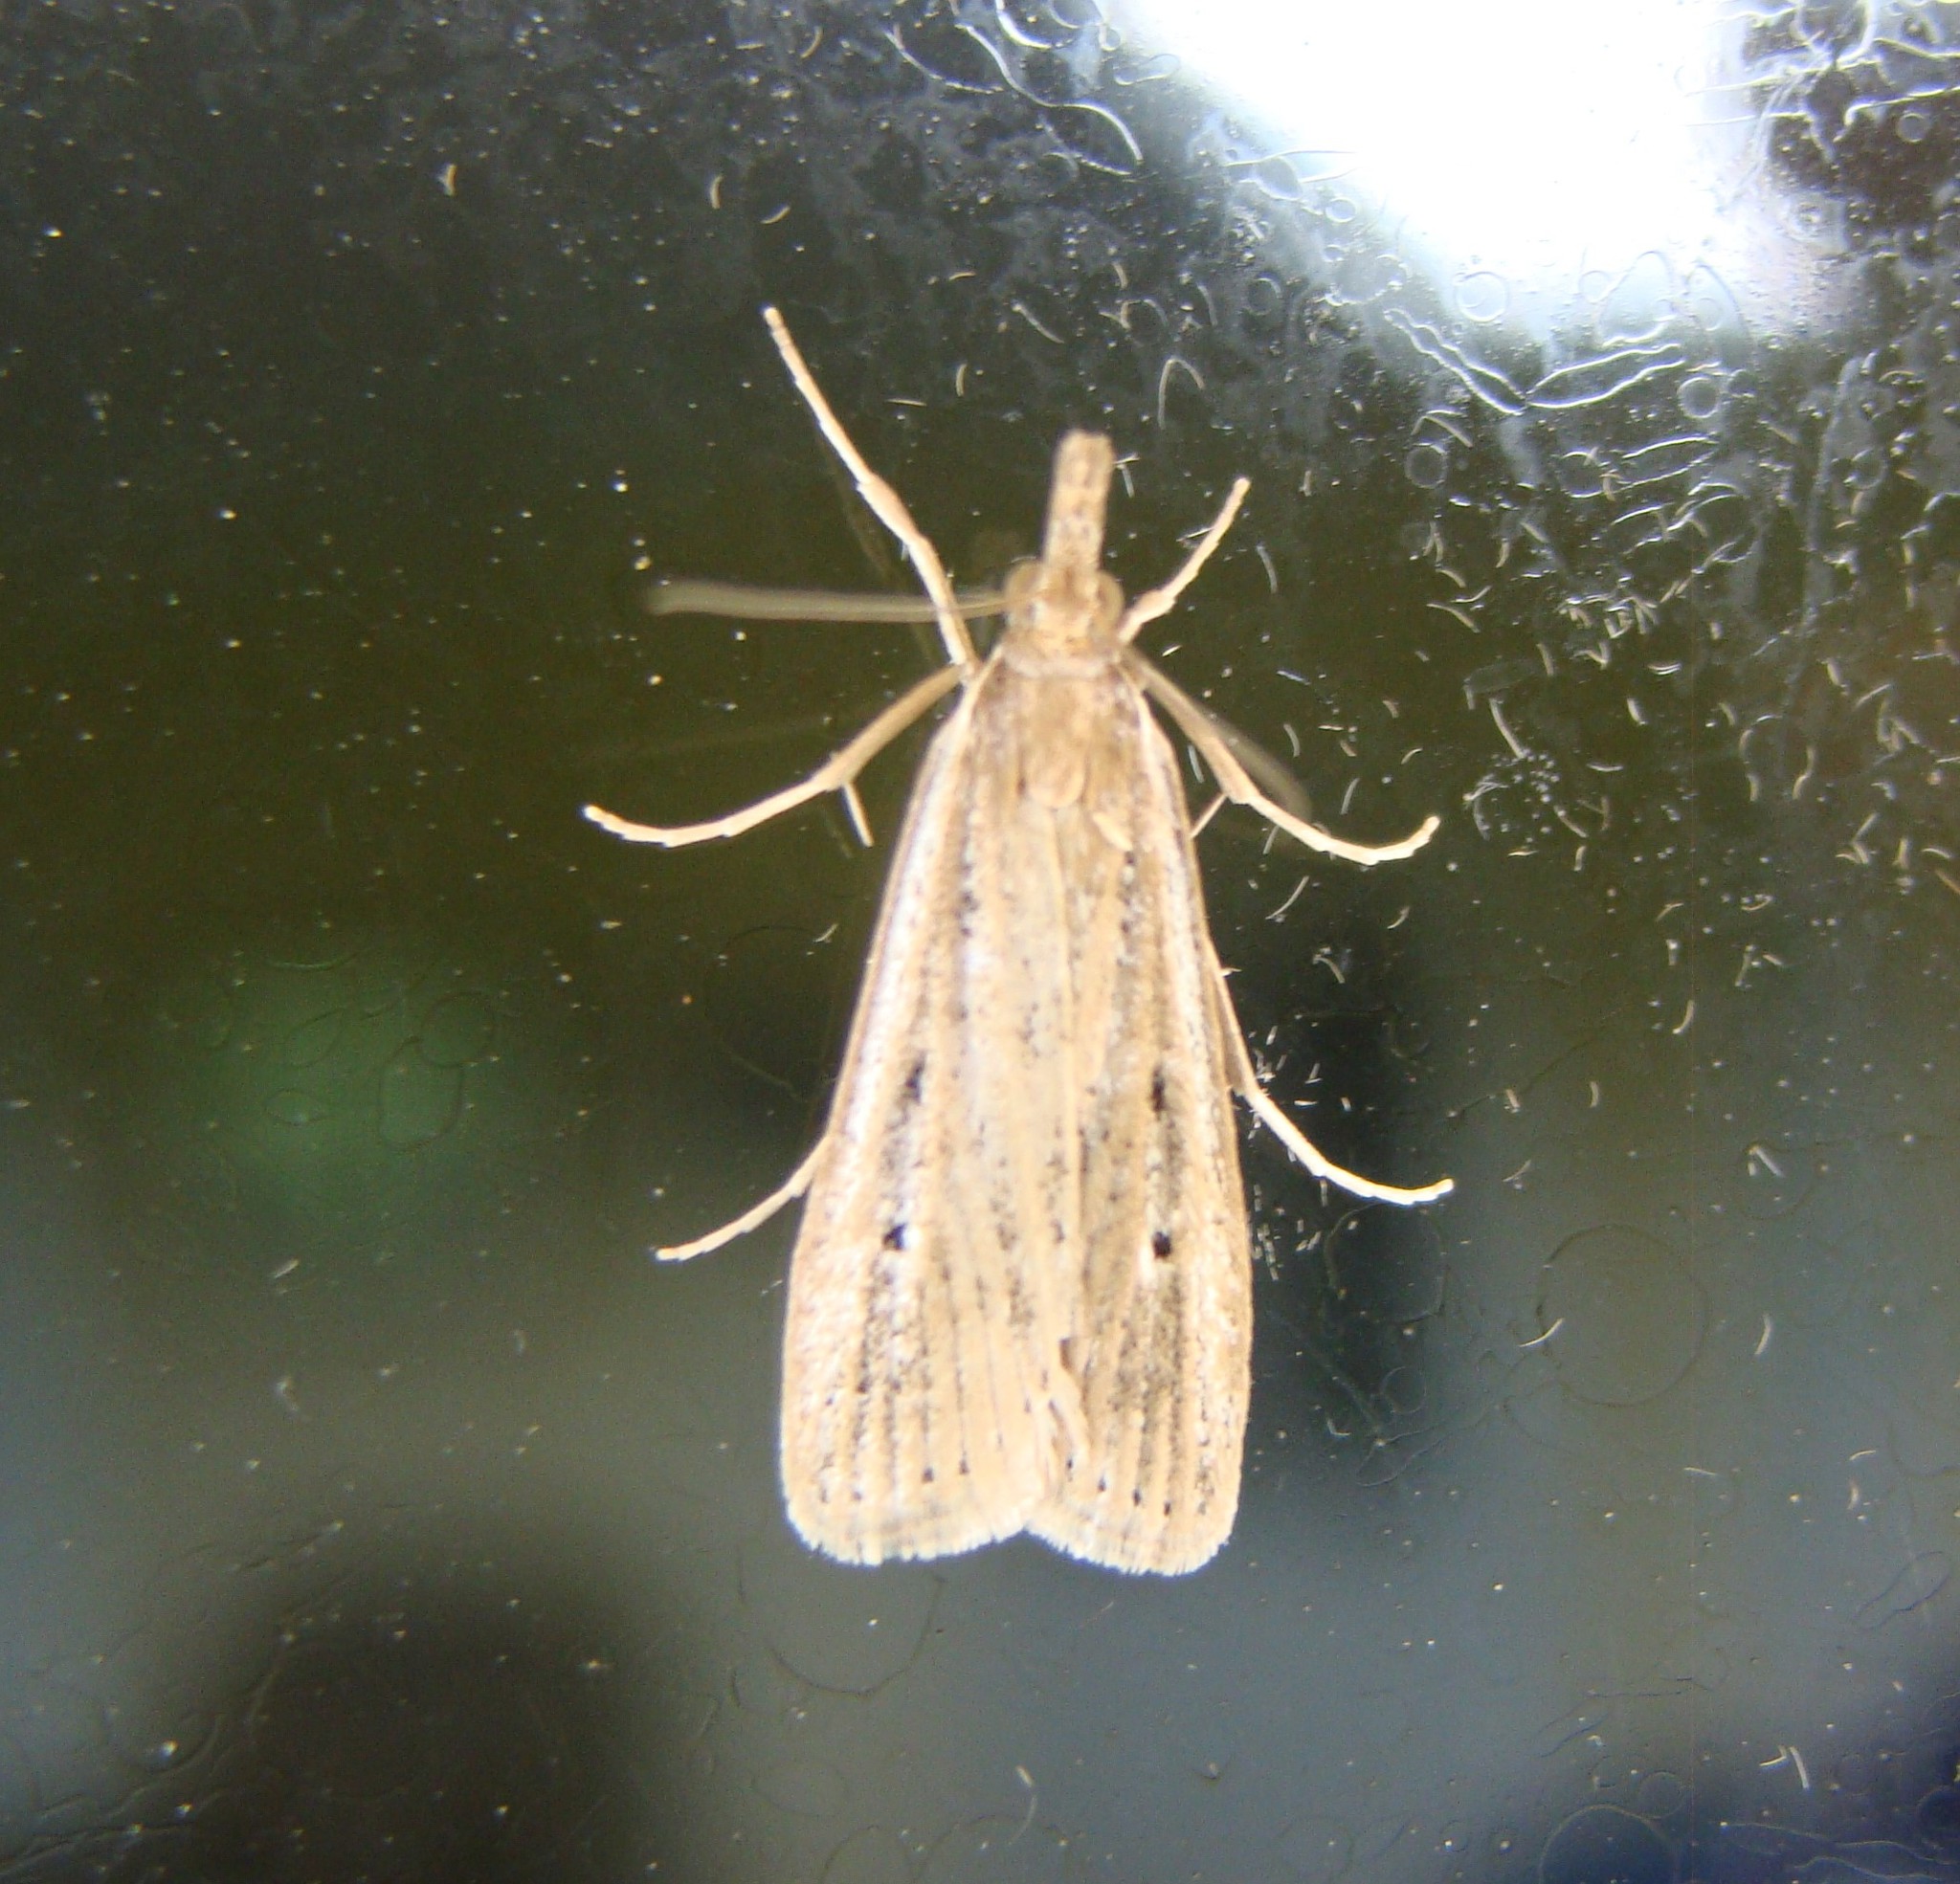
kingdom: Animalia
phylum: Arthropoda
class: Insecta
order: Lepidoptera
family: Crambidae
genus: Eudonia
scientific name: Eudonia sabulosella
